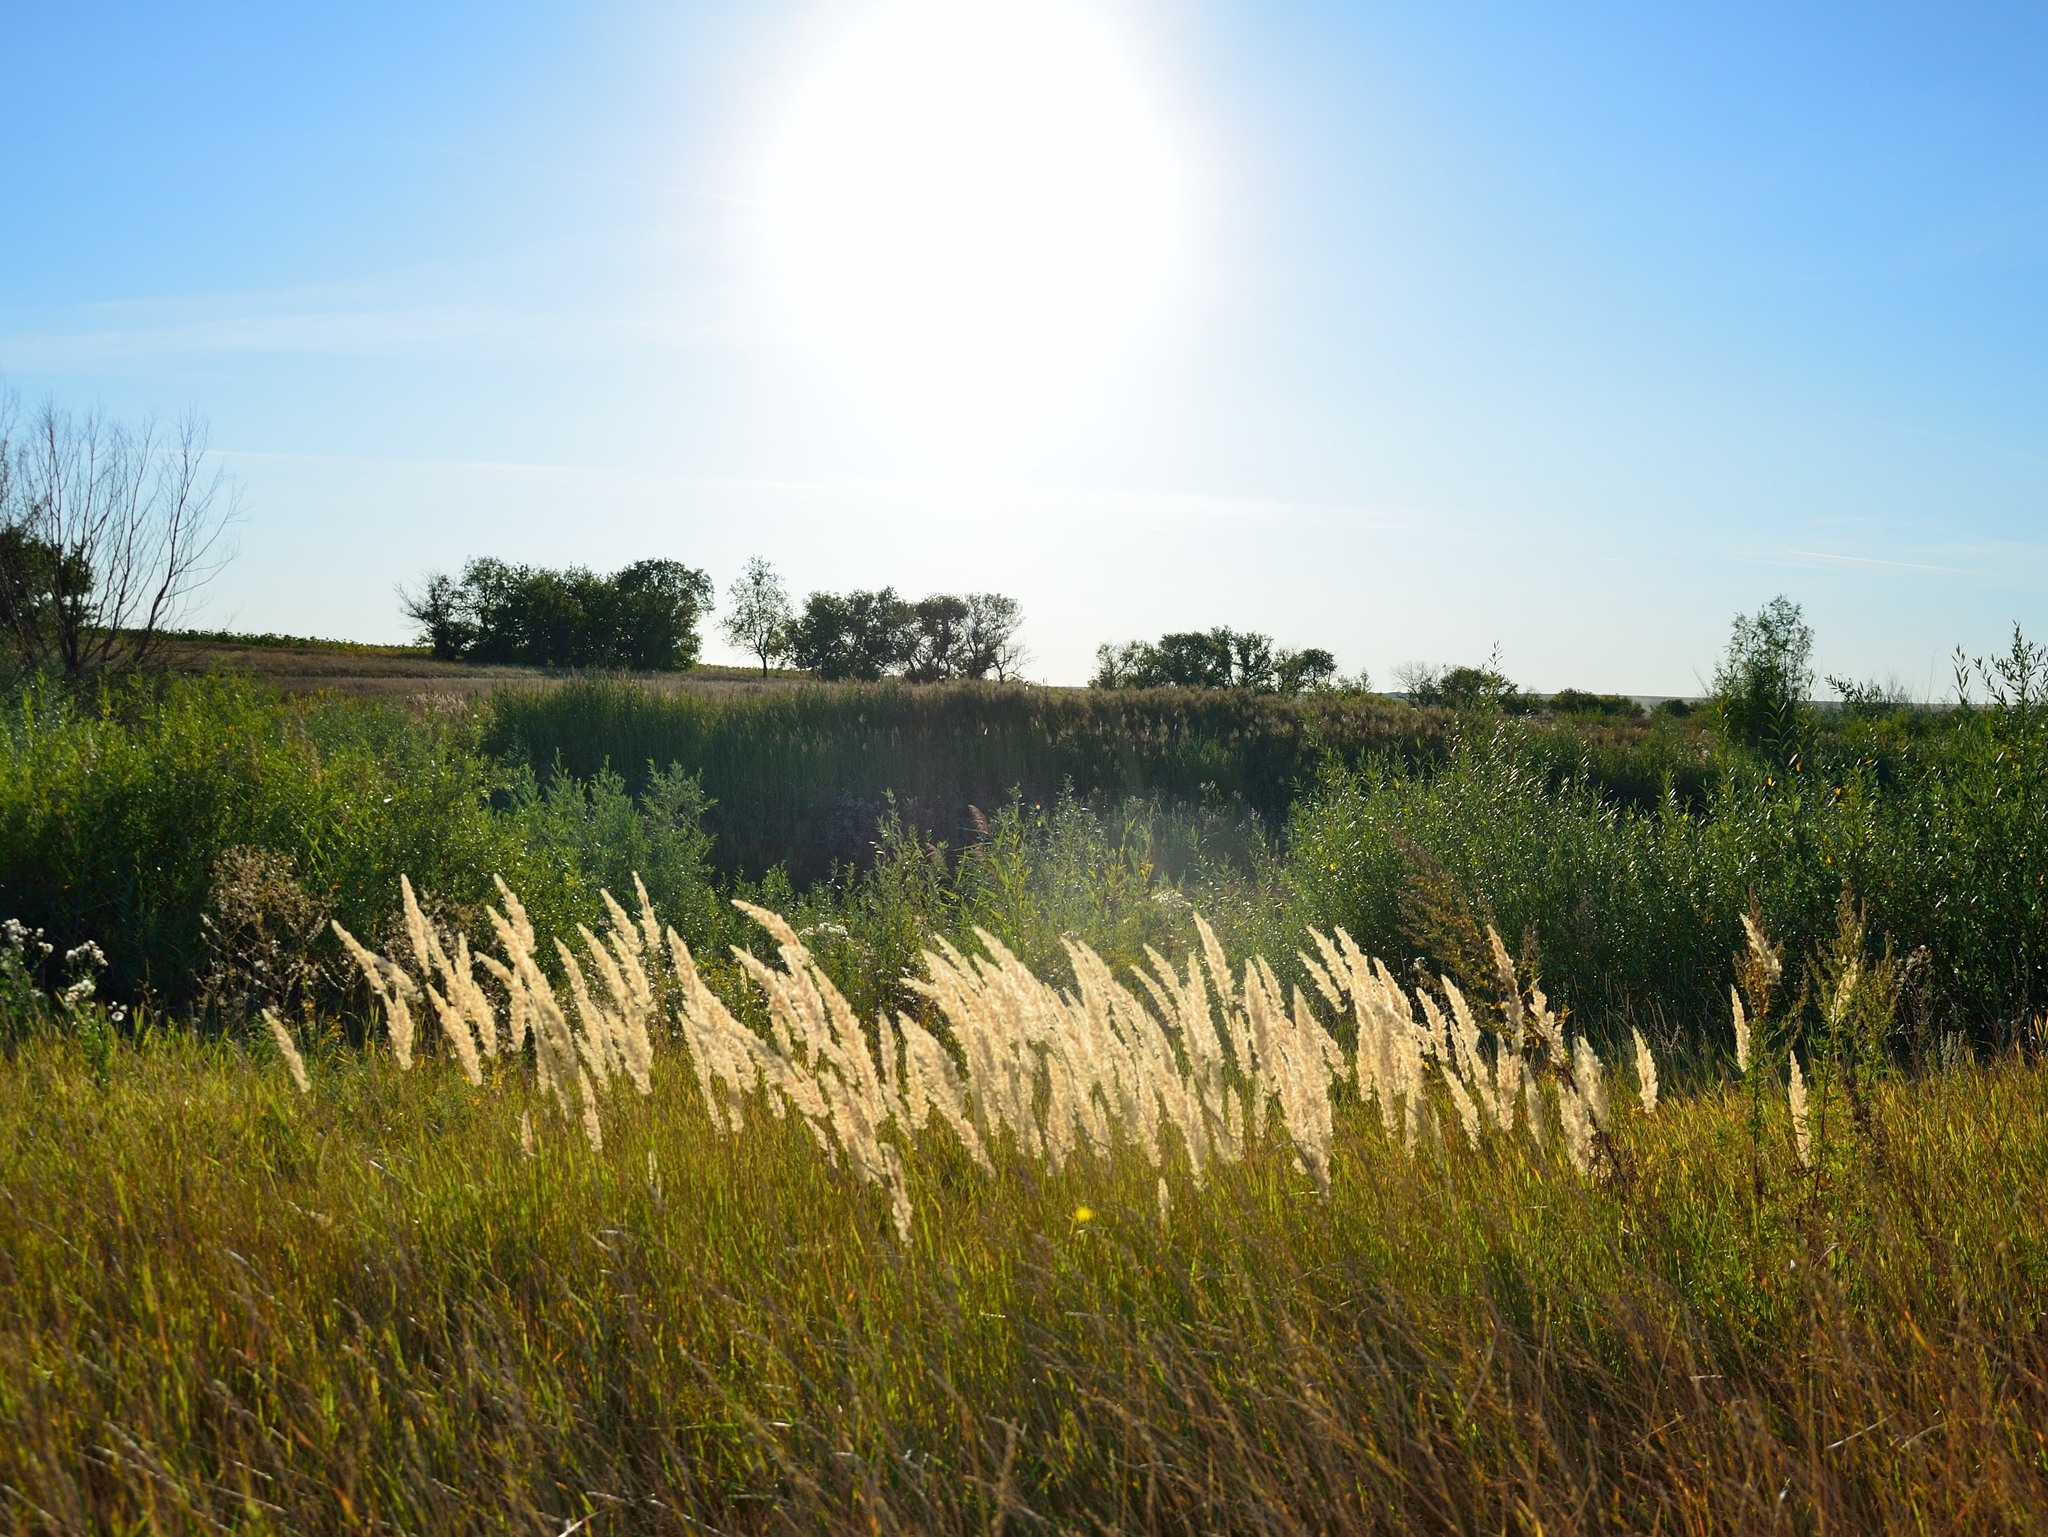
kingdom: Plantae
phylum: Tracheophyta
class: Liliopsida
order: Poales
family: Poaceae
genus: Calamagrostis
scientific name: Calamagrostis epigejos
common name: Wood small-reed
